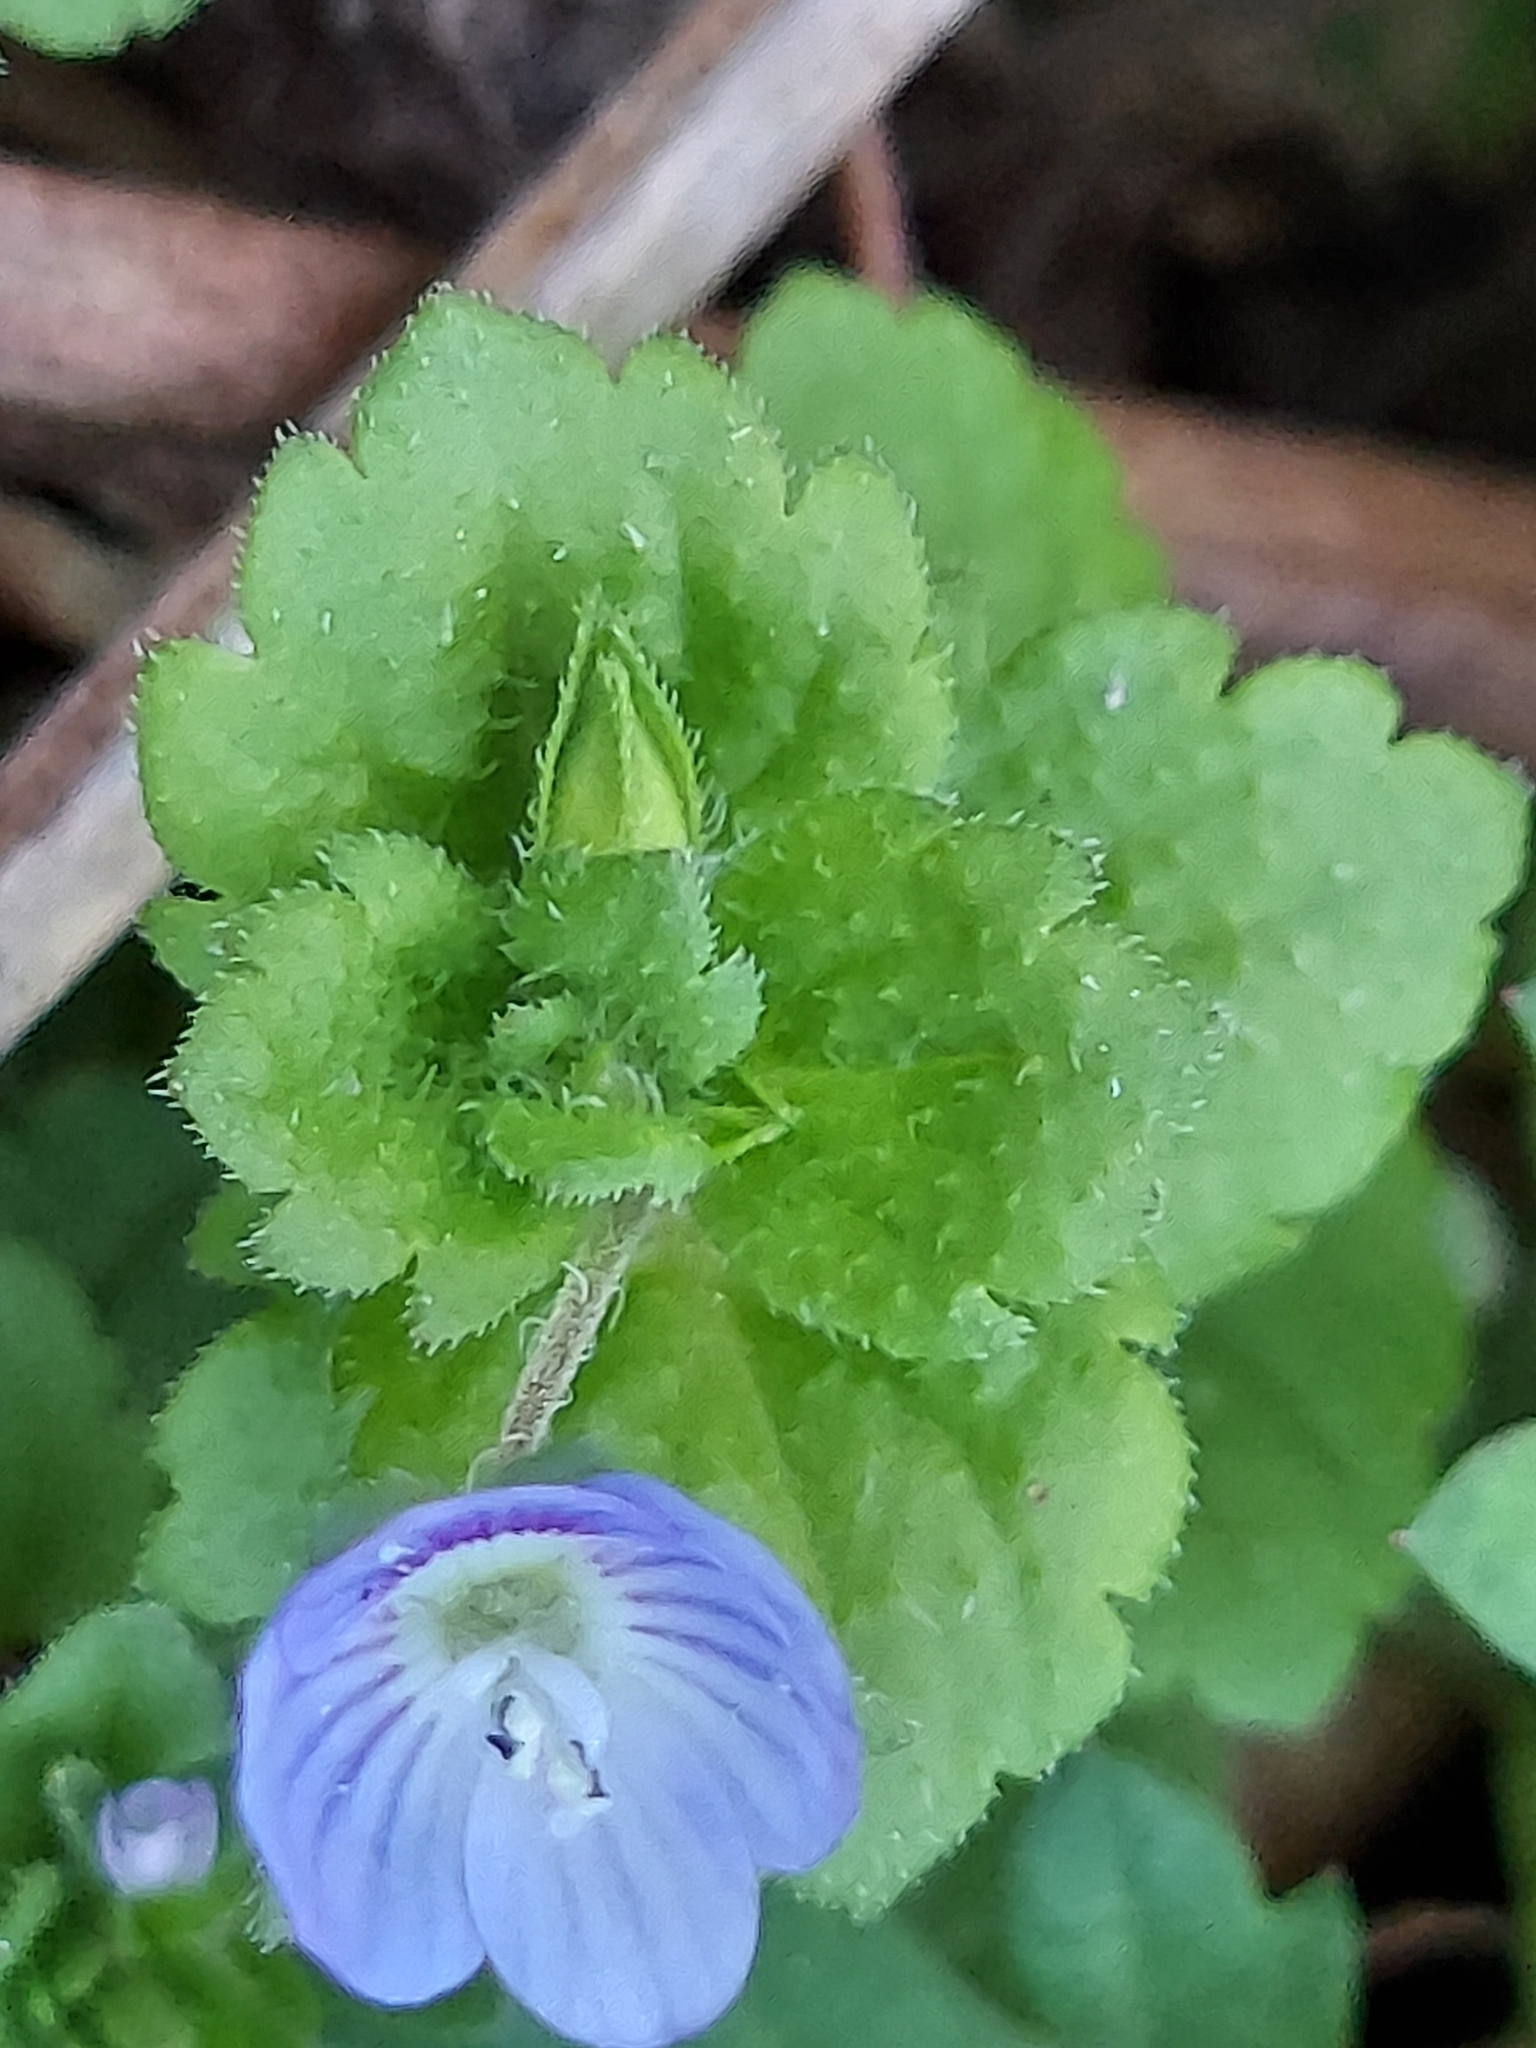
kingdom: Plantae
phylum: Tracheophyta
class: Magnoliopsida
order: Lamiales
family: Plantaginaceae
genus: Veronica
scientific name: Veronica persica
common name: Common field-speedwell
